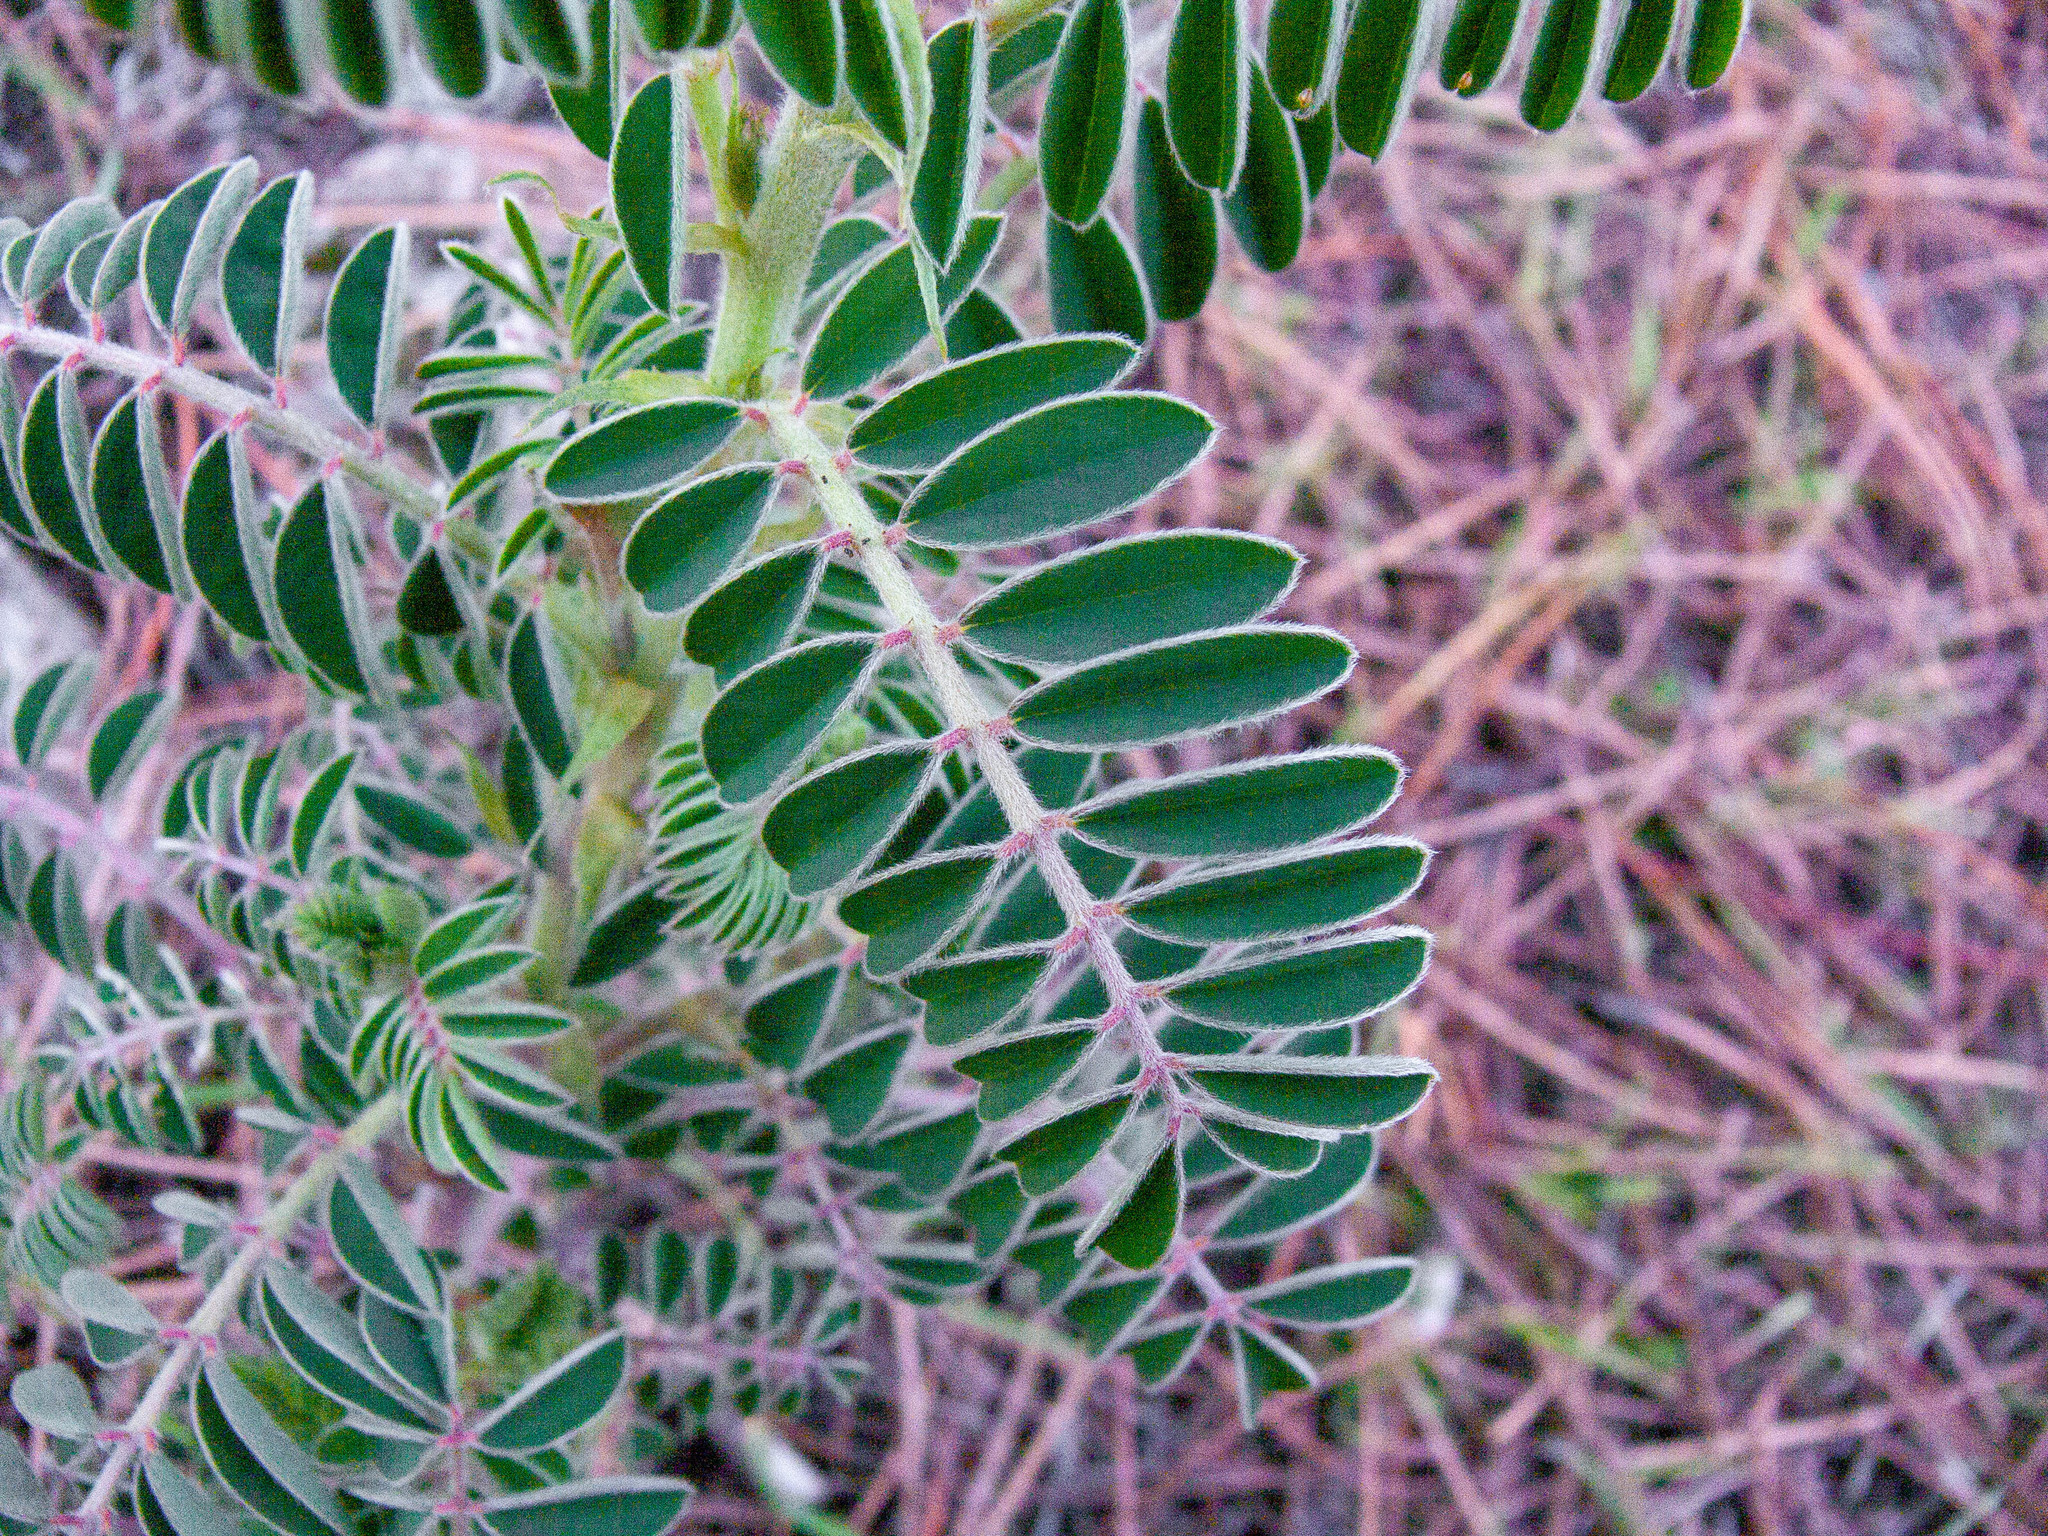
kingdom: Plantae
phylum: Tracheophyta
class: Magnoliopsida
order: Fabales
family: Fabaceae
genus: Erophaca
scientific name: Erophaca baetica
